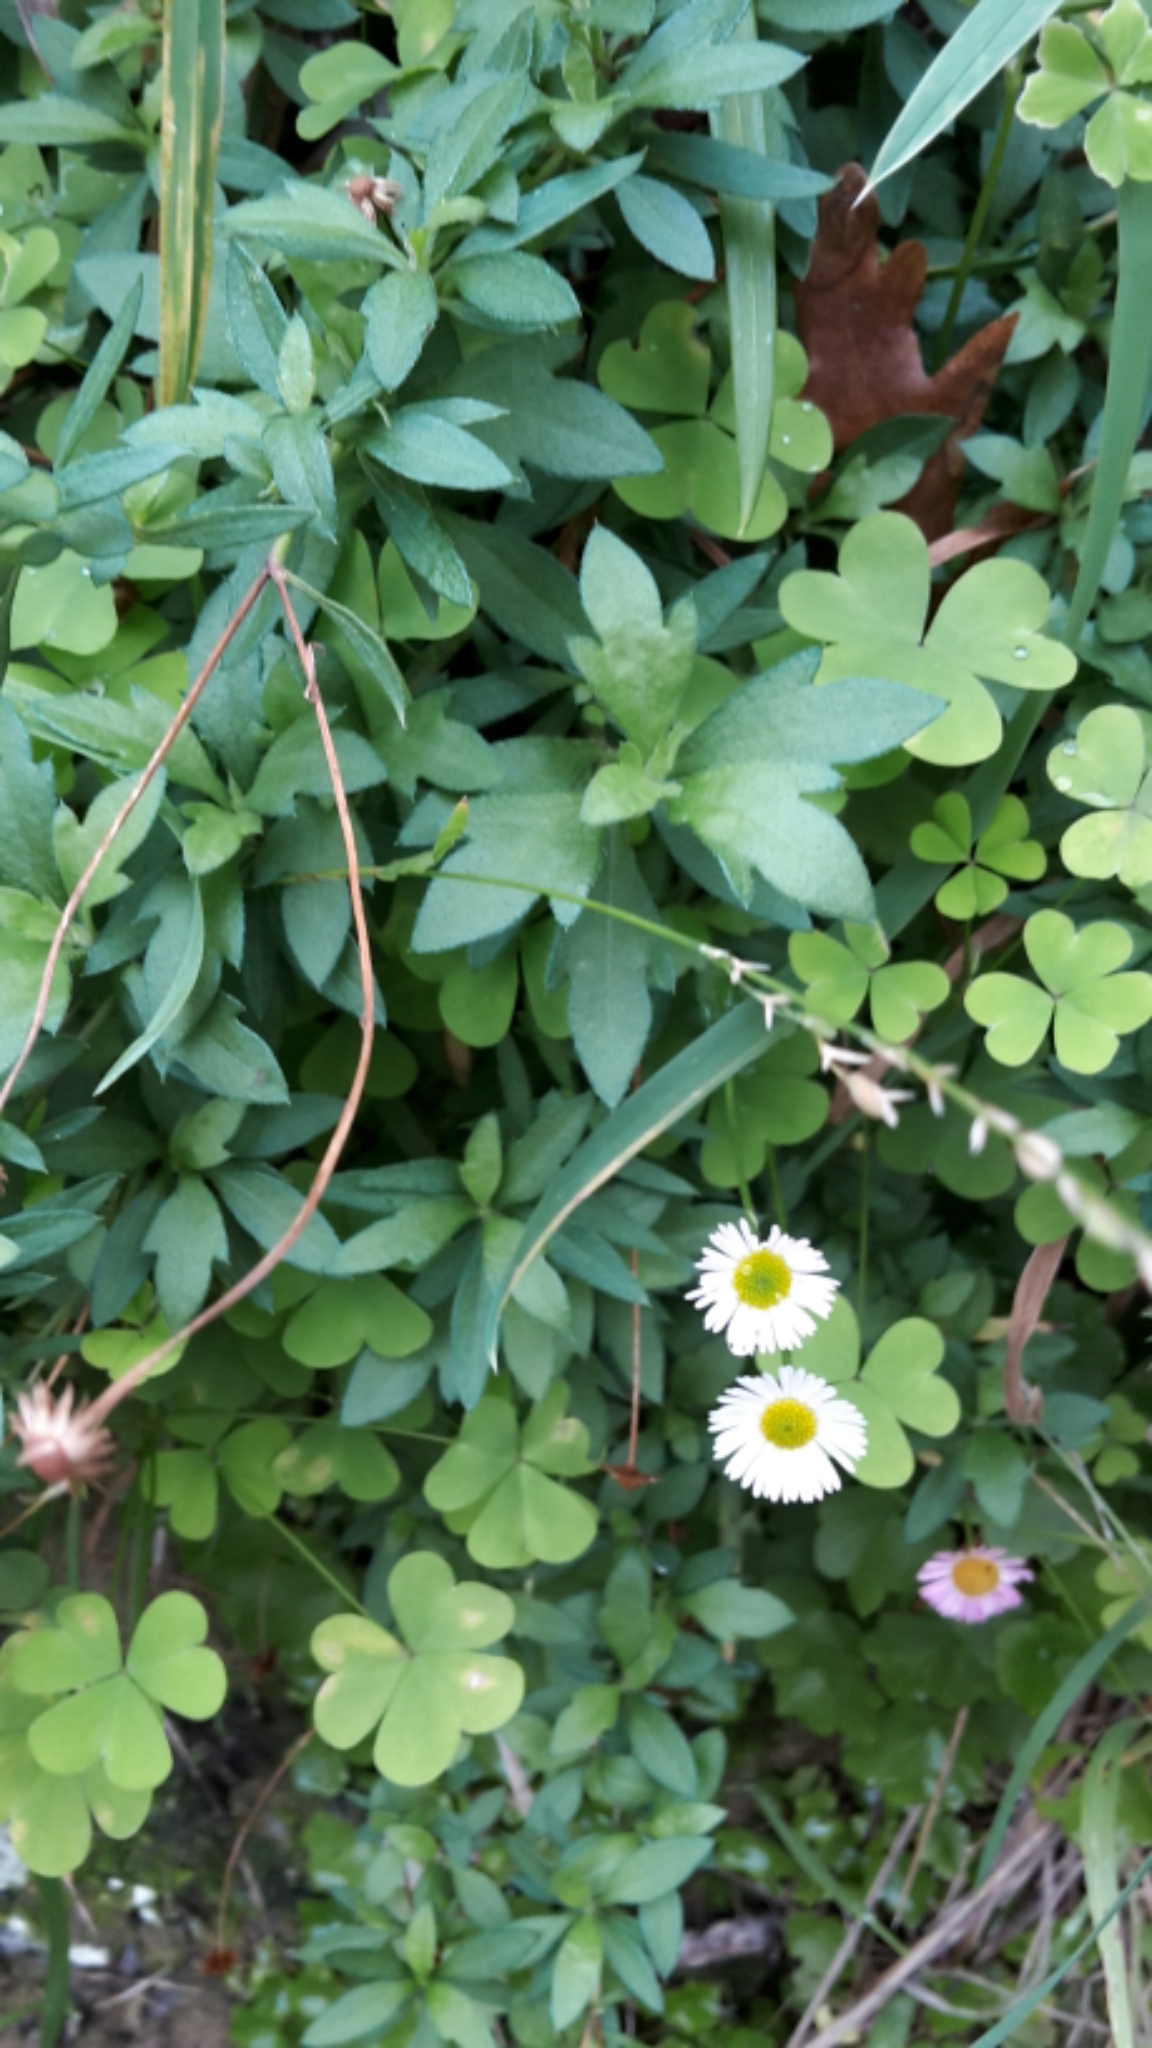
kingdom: Plantae
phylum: Tracheophyta
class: Magnoliopsida
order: Asterales
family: Asteraceae
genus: Erigeron
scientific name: Erigeron karvinskianus
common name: Mexican fleabane
